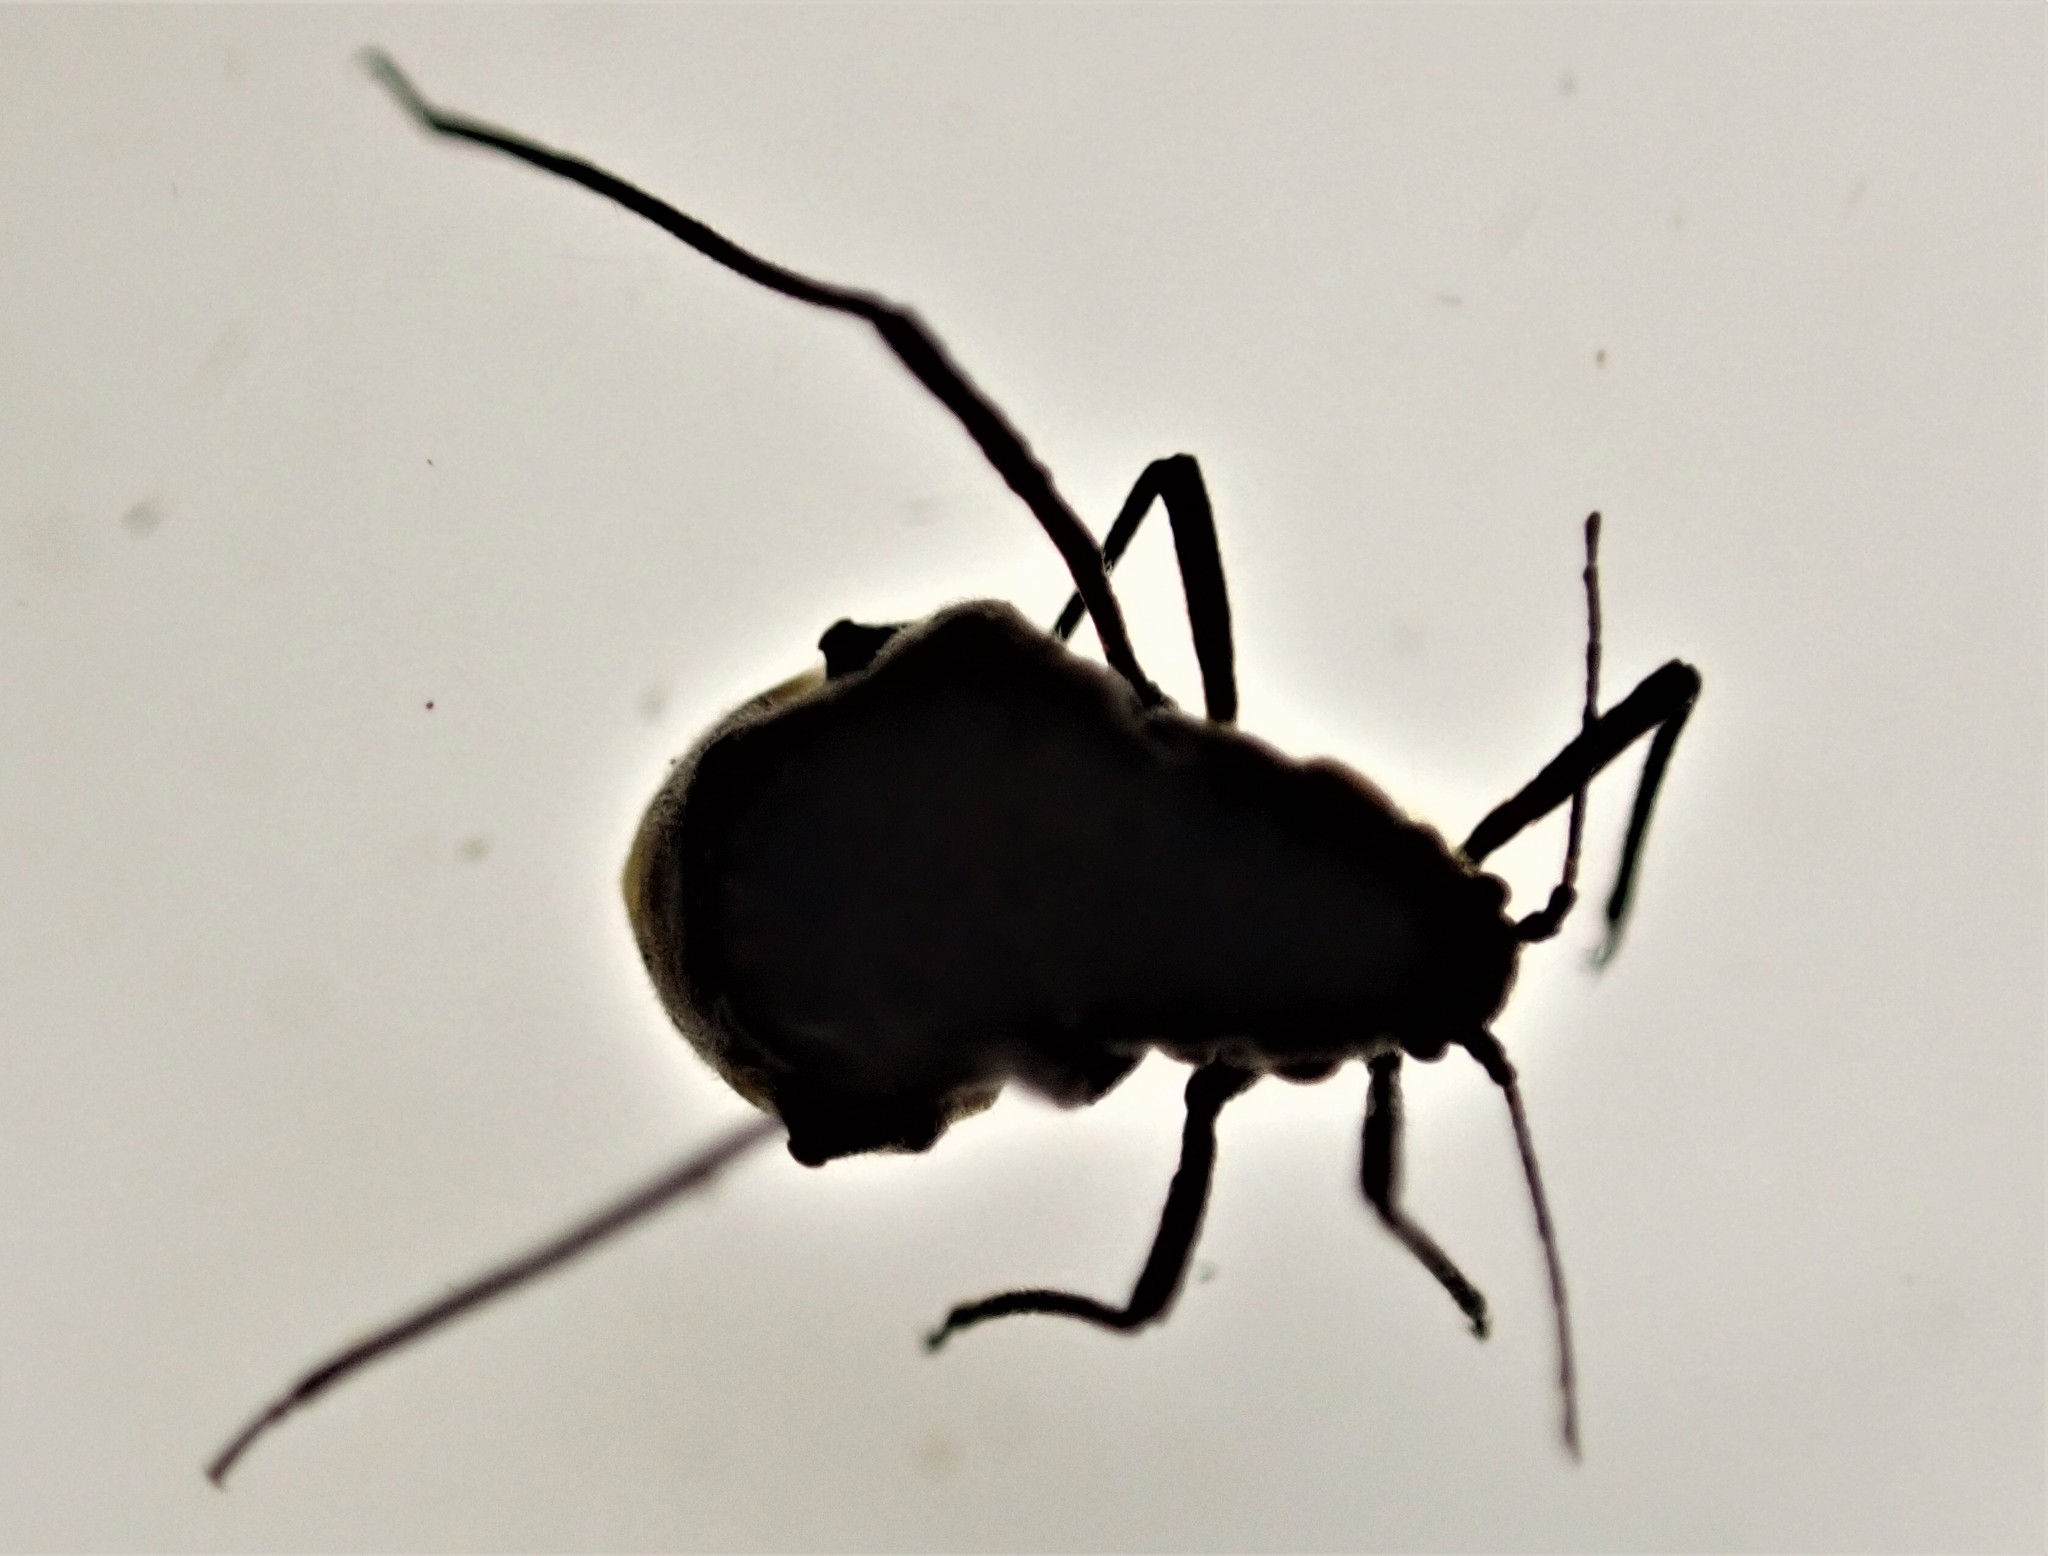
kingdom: Animalia
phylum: Arthropoda
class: Insecta
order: Hemiptera
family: Aphididae
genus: Tuberolachnus
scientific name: Tuberolachnus salignus
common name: Giant willow aphid
